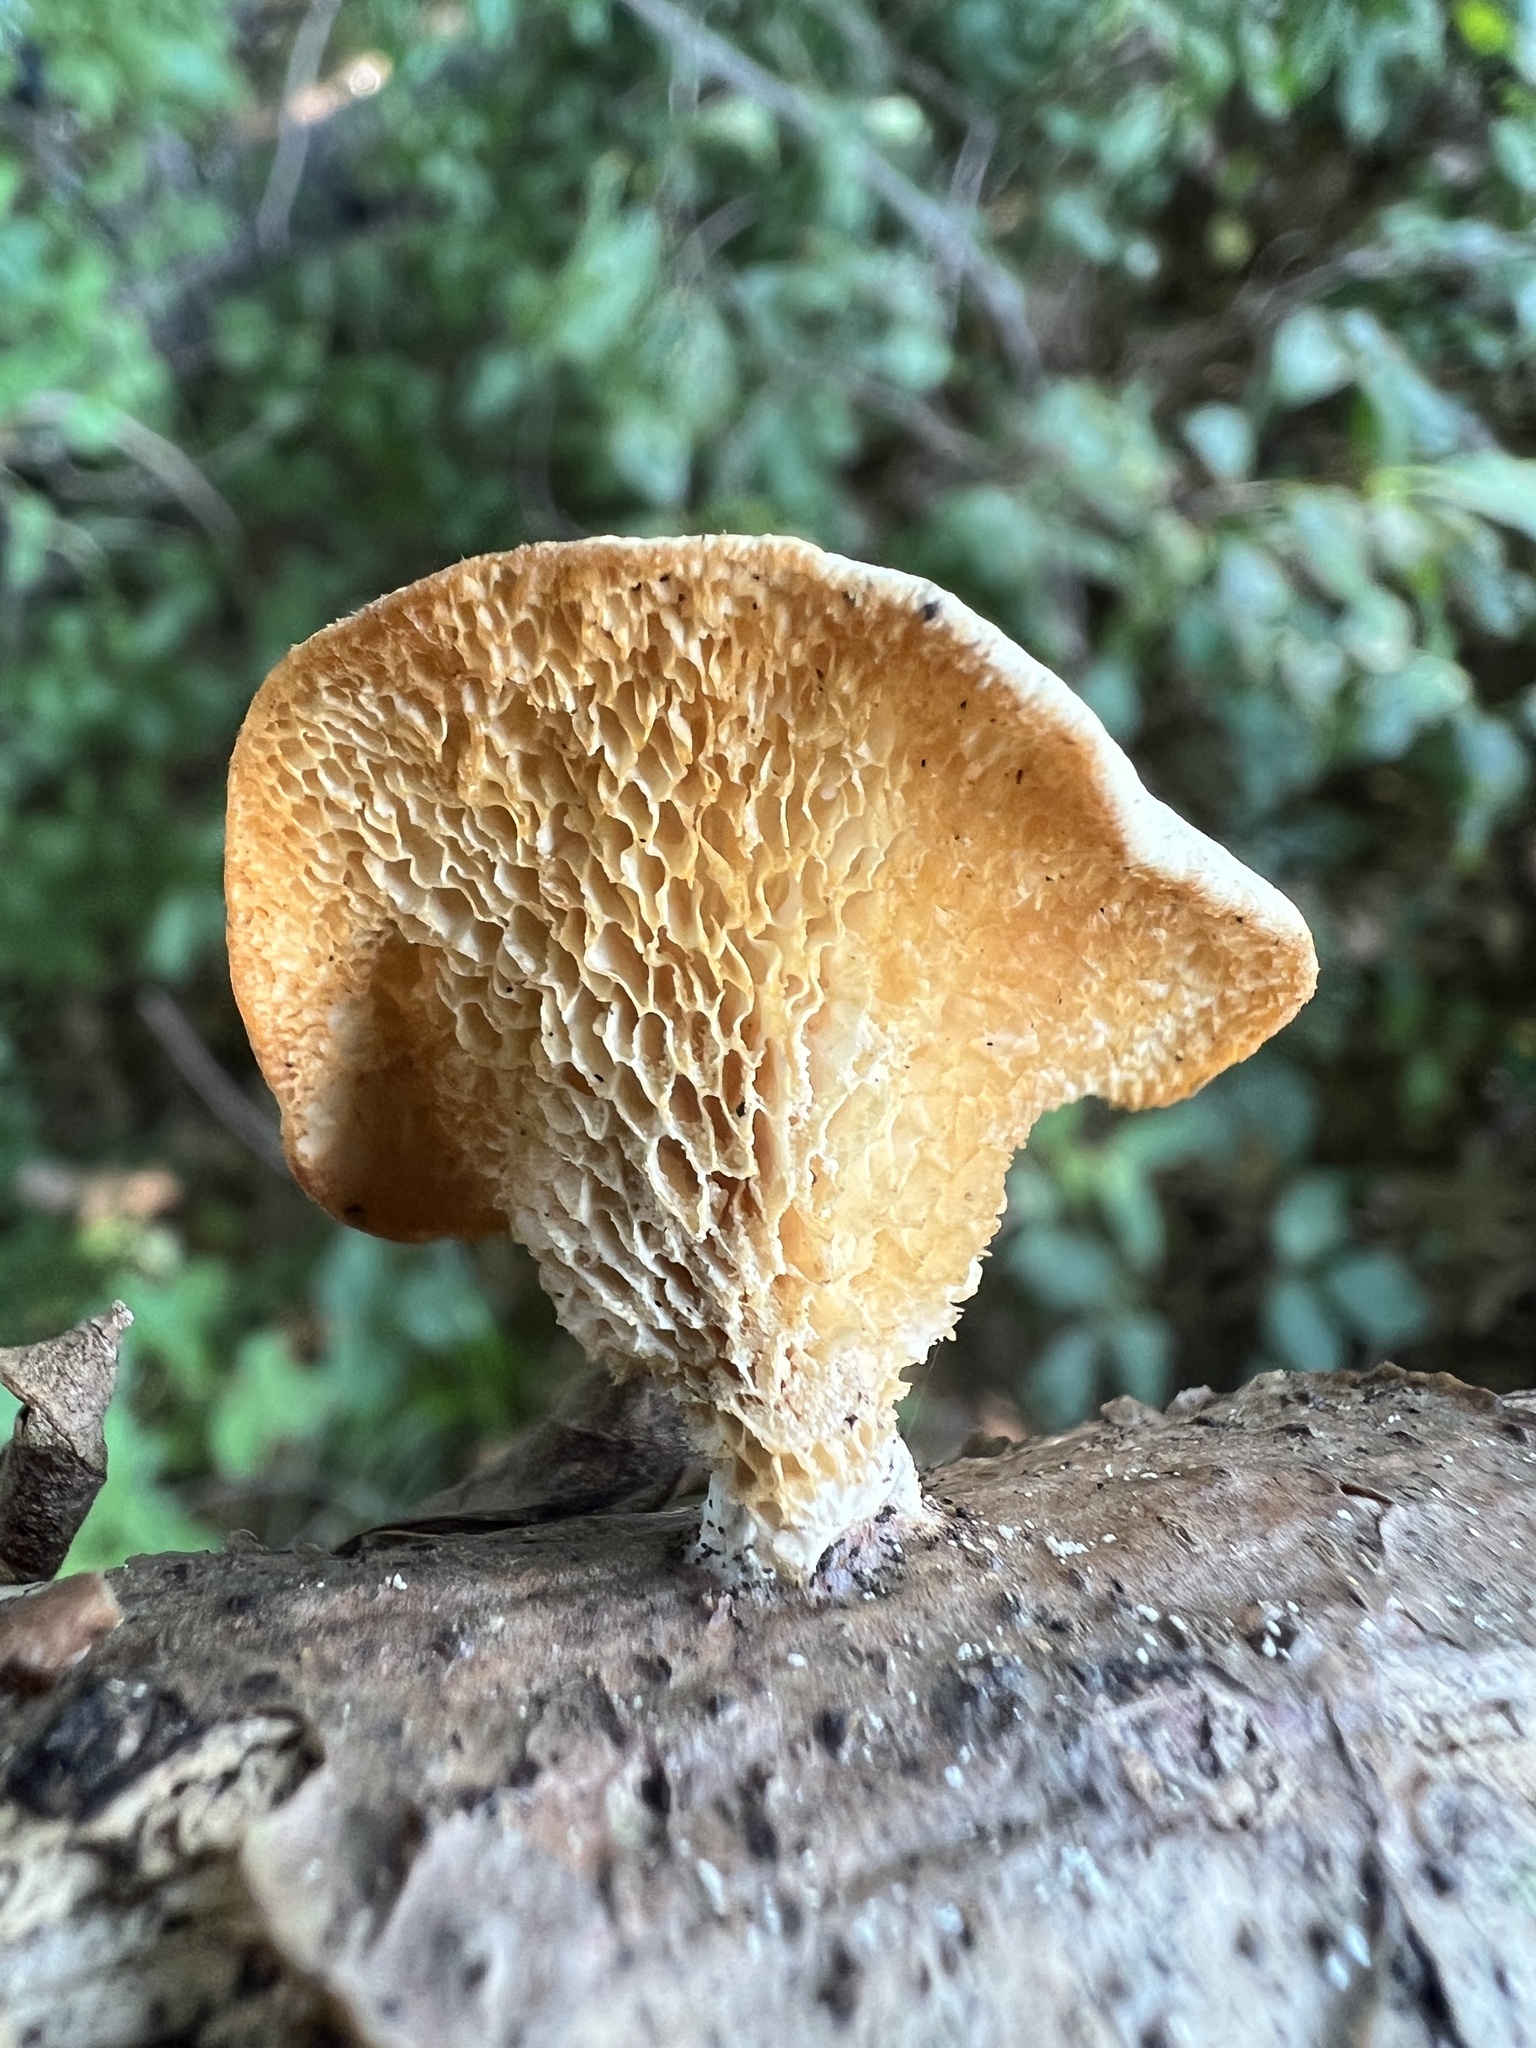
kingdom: Fungi
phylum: Basidiomycota
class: Agaricomycetes
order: Polyporales
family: Polyporaceae
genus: Neofavolus
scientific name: Neofavolus americanus
